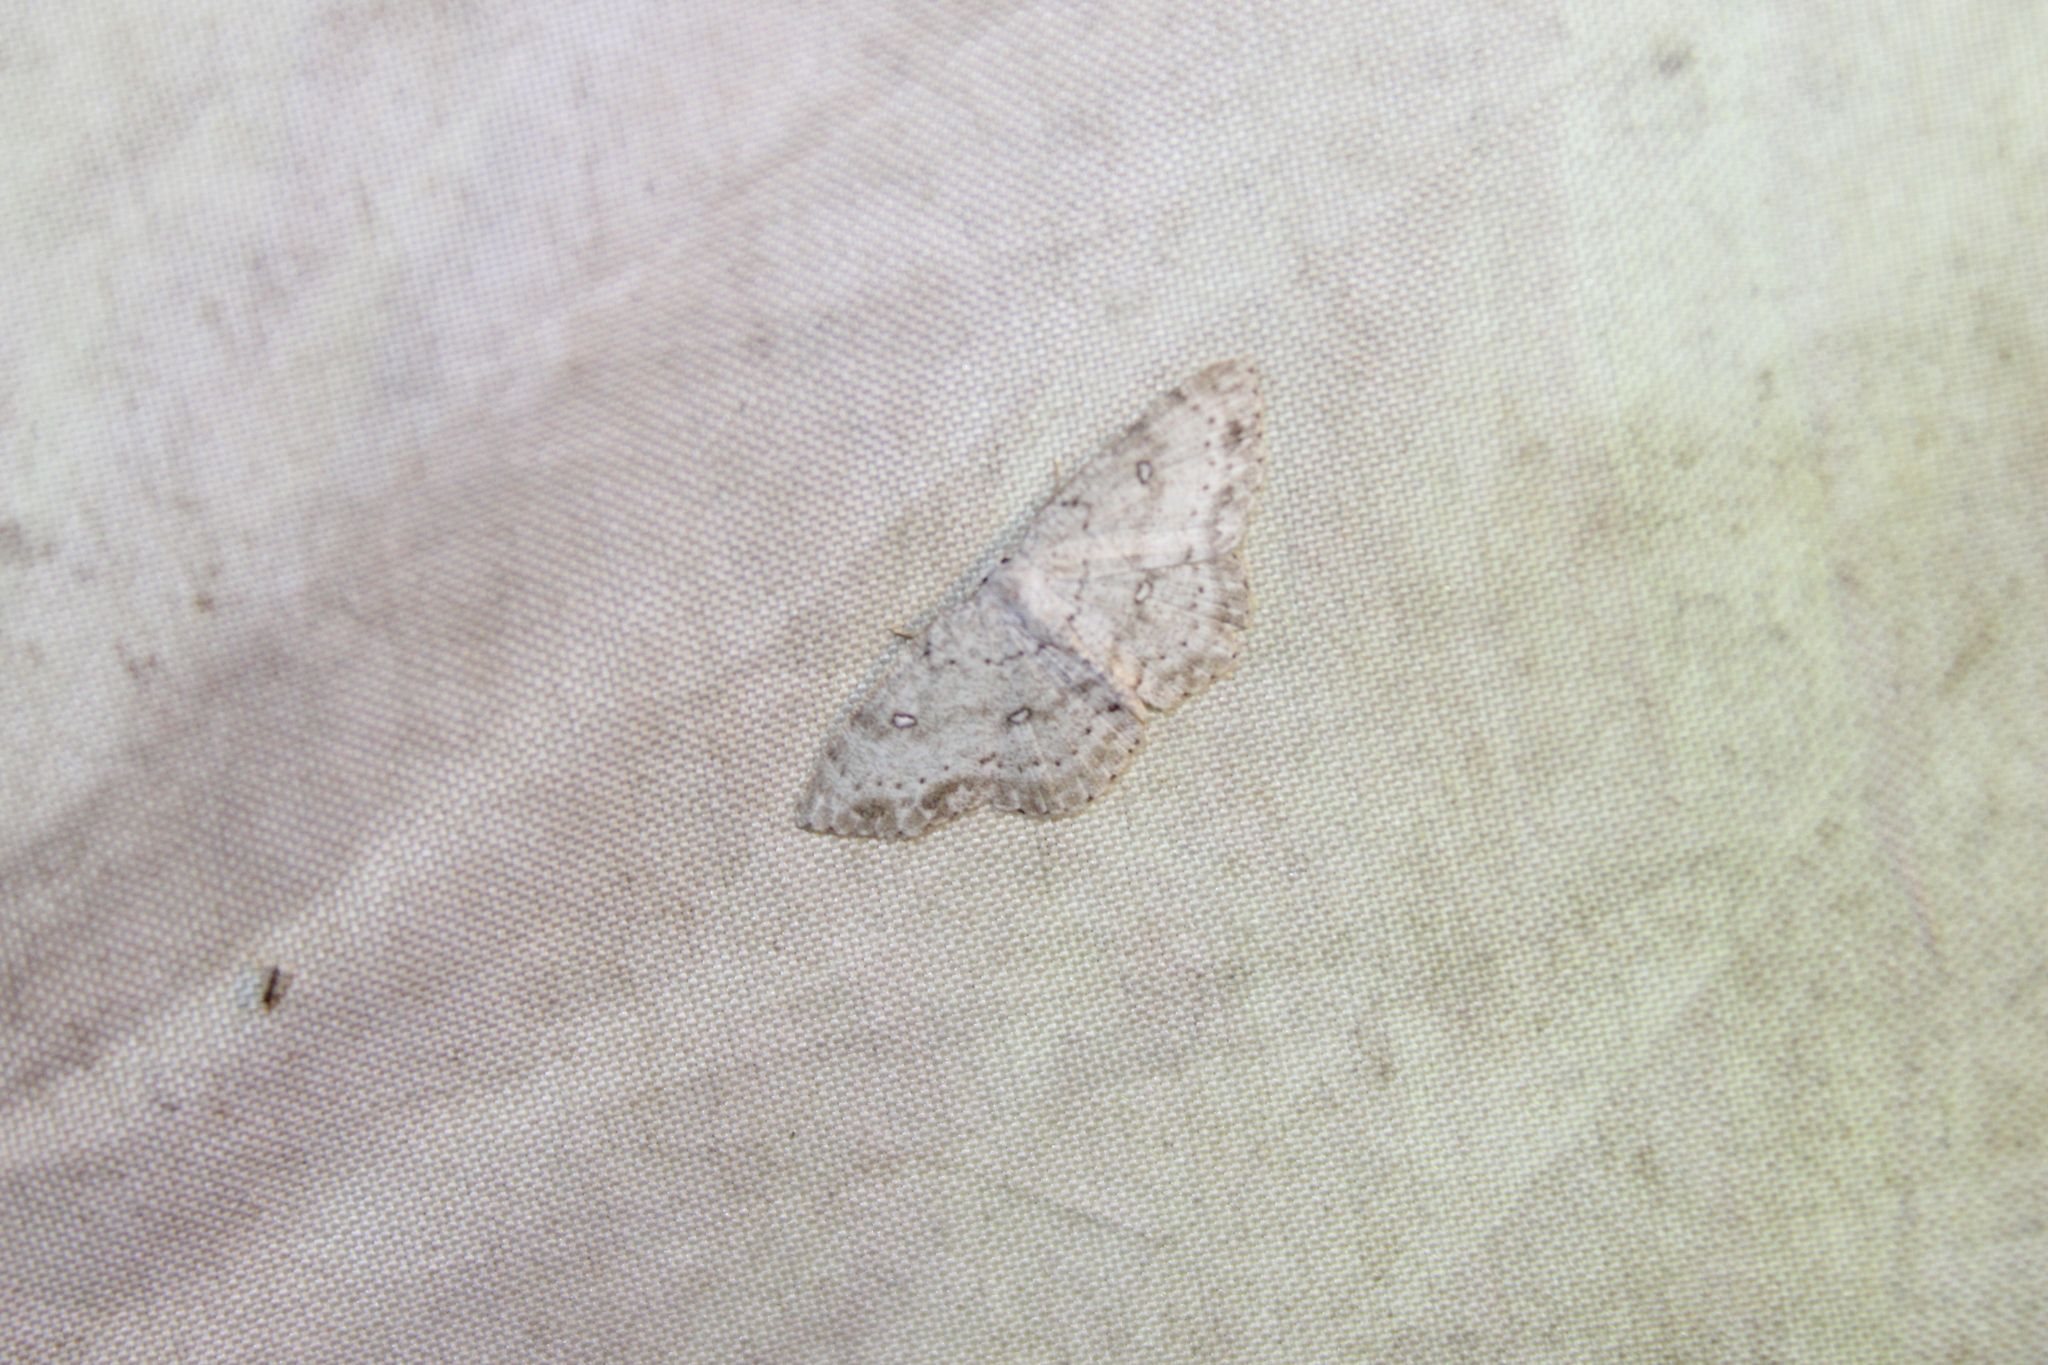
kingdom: Animalia
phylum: Arthropoda
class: Insecta
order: Lepidoptera
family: Geometridae
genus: Cyclophora
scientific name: Cyclophora pendulinaria
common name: Sweet fern geometer
